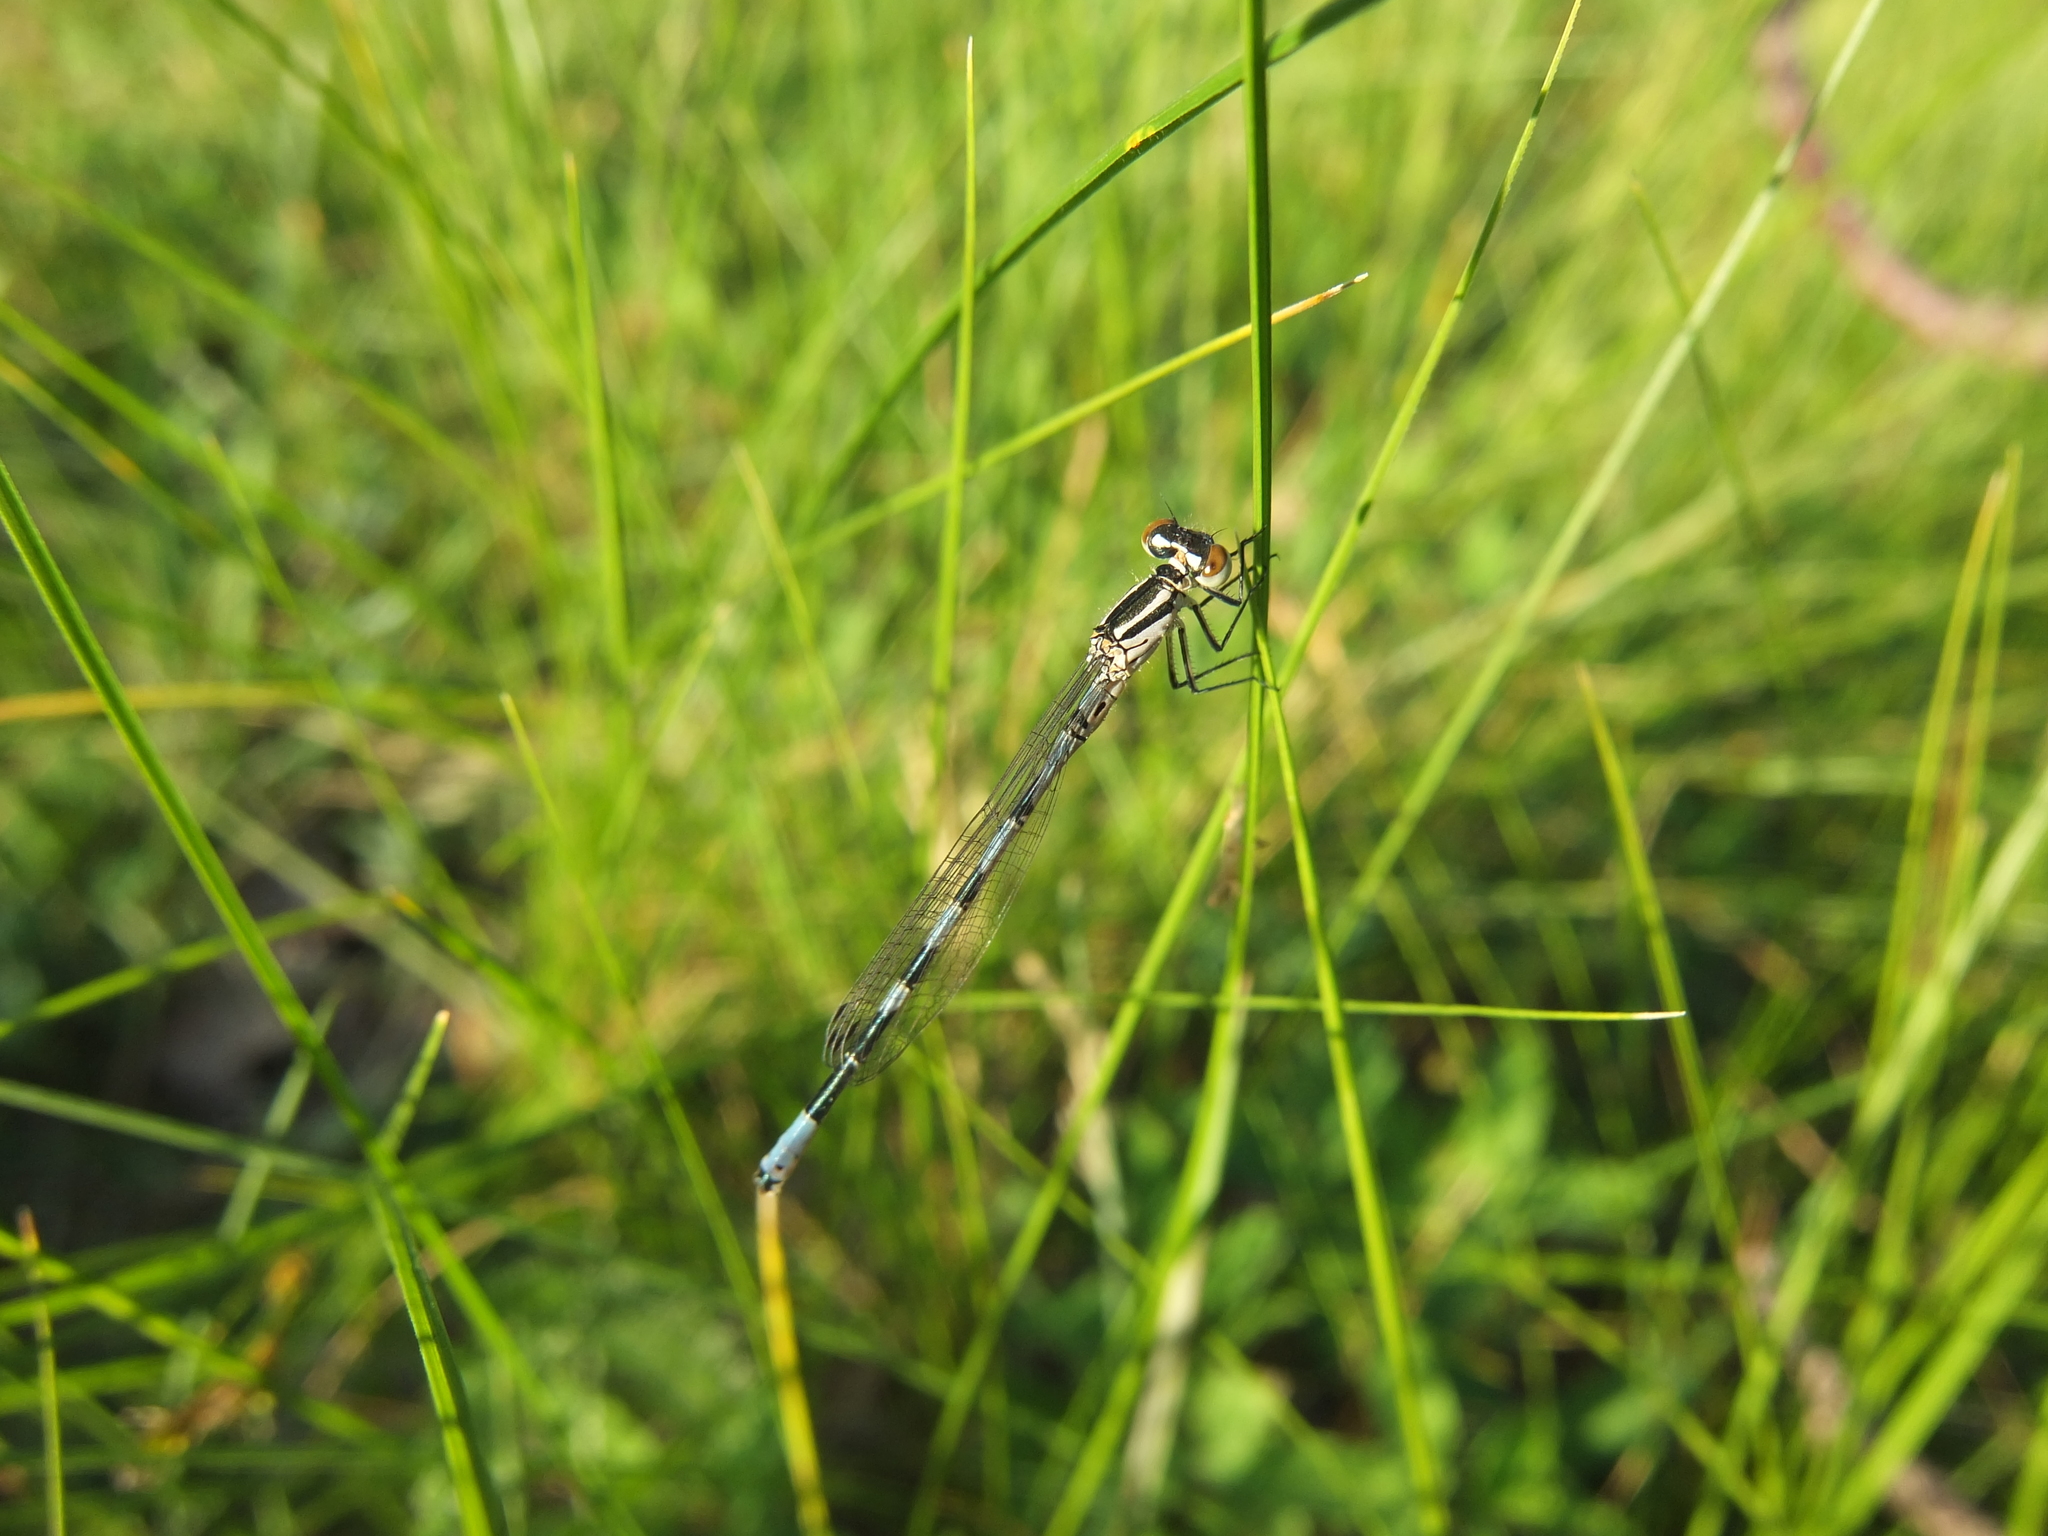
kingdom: Animalia
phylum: Arthropoda
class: Insecta
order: Odonata
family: Coenagrionidae
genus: Coenagrion
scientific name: Coenagrion hastulatum
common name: Spearhead bluet
